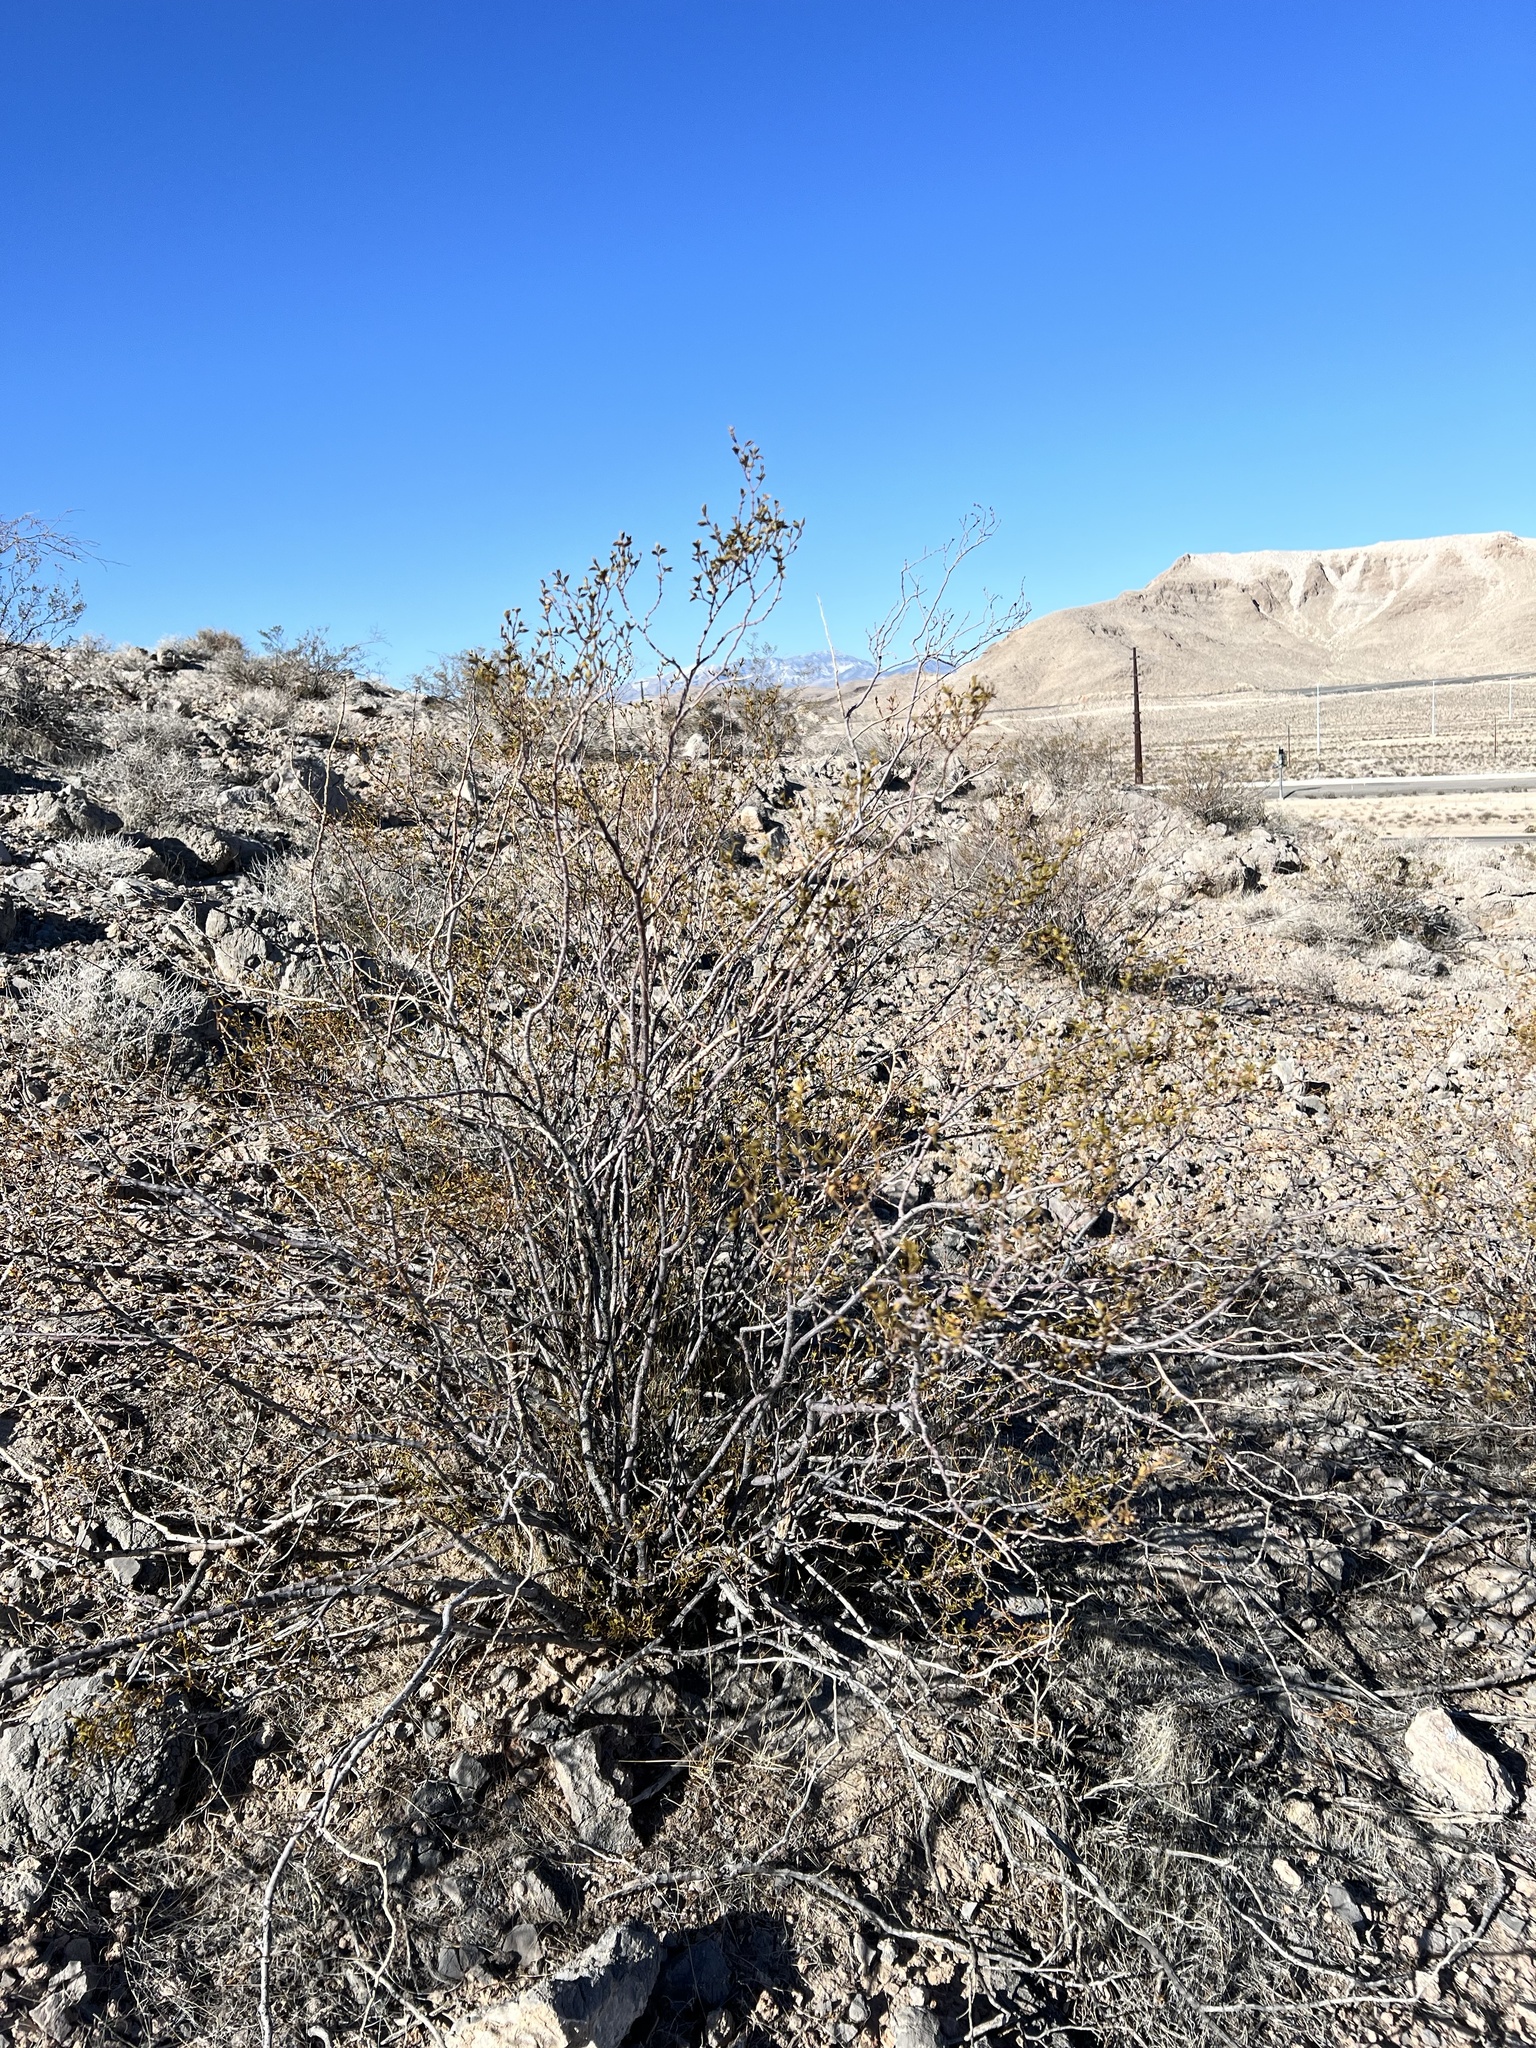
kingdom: Plantae
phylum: Tracheophyta
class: Magnoliopsida
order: Zygophyllales
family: Zygophyllaceae
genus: Larrea
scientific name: Larrea tridentata
